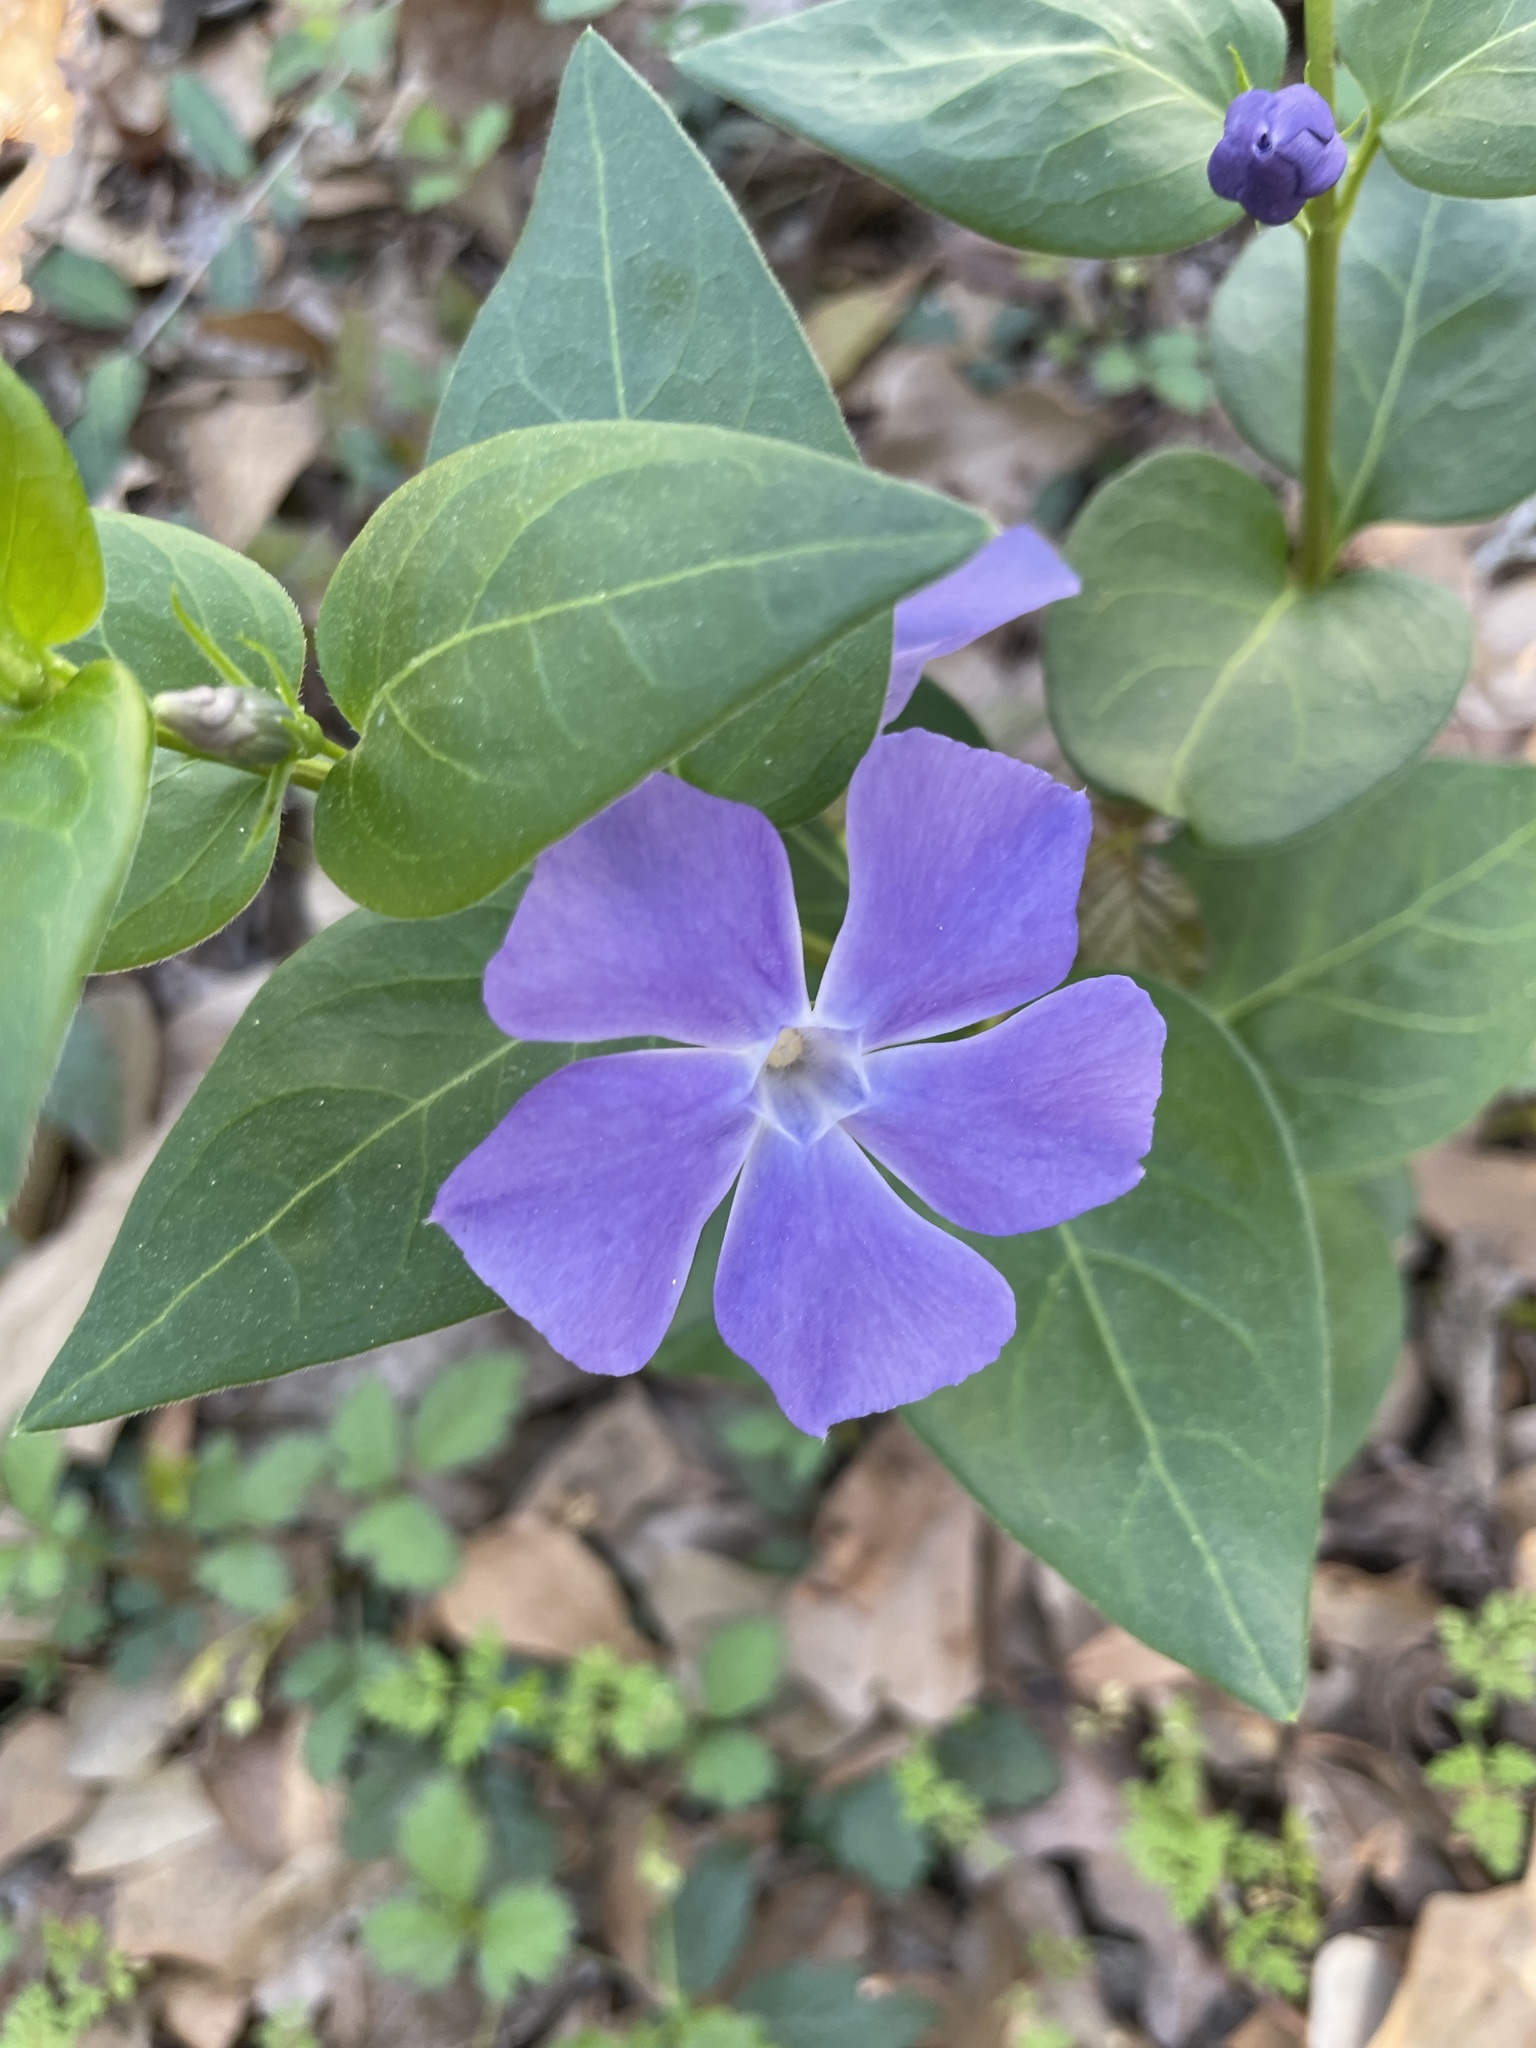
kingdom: Plantae
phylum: Tracheophyta
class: Magnoliopsida
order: Gentianales
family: Apocynaceae
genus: Vinca
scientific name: Vinca major
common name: Greater periwinkle
